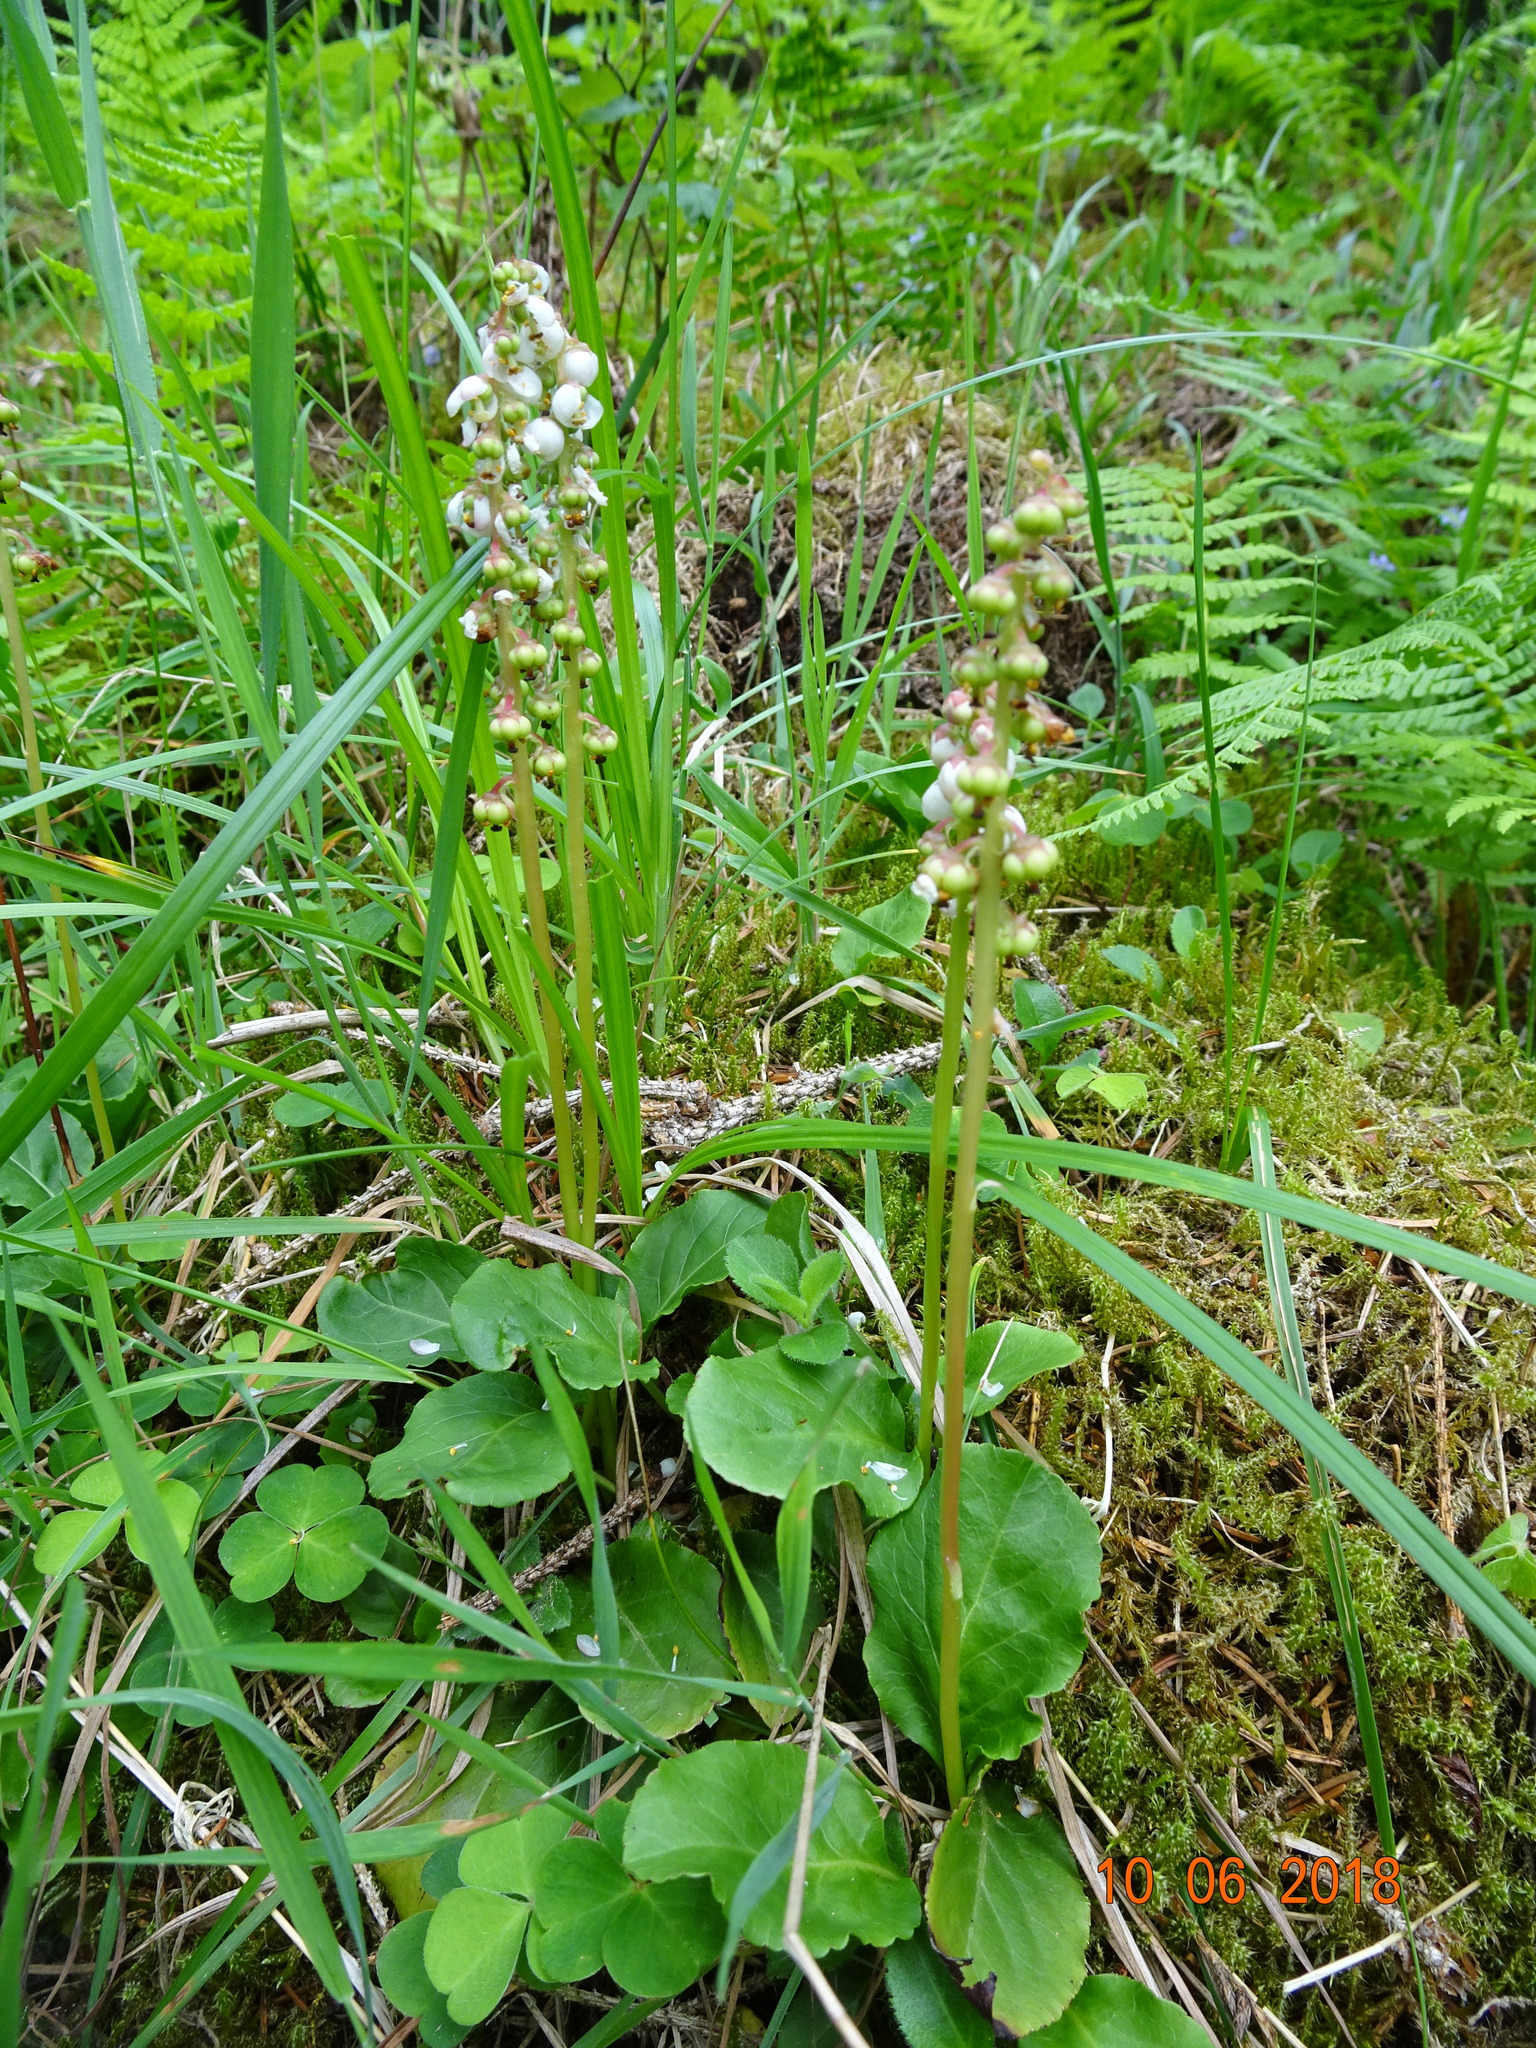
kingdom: Plantae
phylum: Tracheophyta
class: Magnoliopsida
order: Ericales
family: Ericaceae
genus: Pyrola
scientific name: Pyrola minor
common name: Common wintergreen
